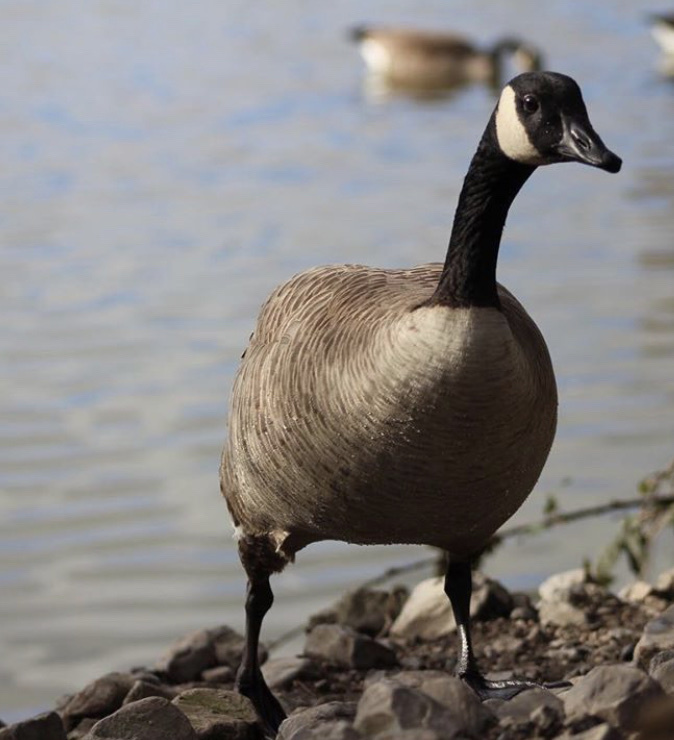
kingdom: Animalia
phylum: Chordata
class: Aves
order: Anseriformes
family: Anatidae
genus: Branta
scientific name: Branta canadensis
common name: Canada goose
